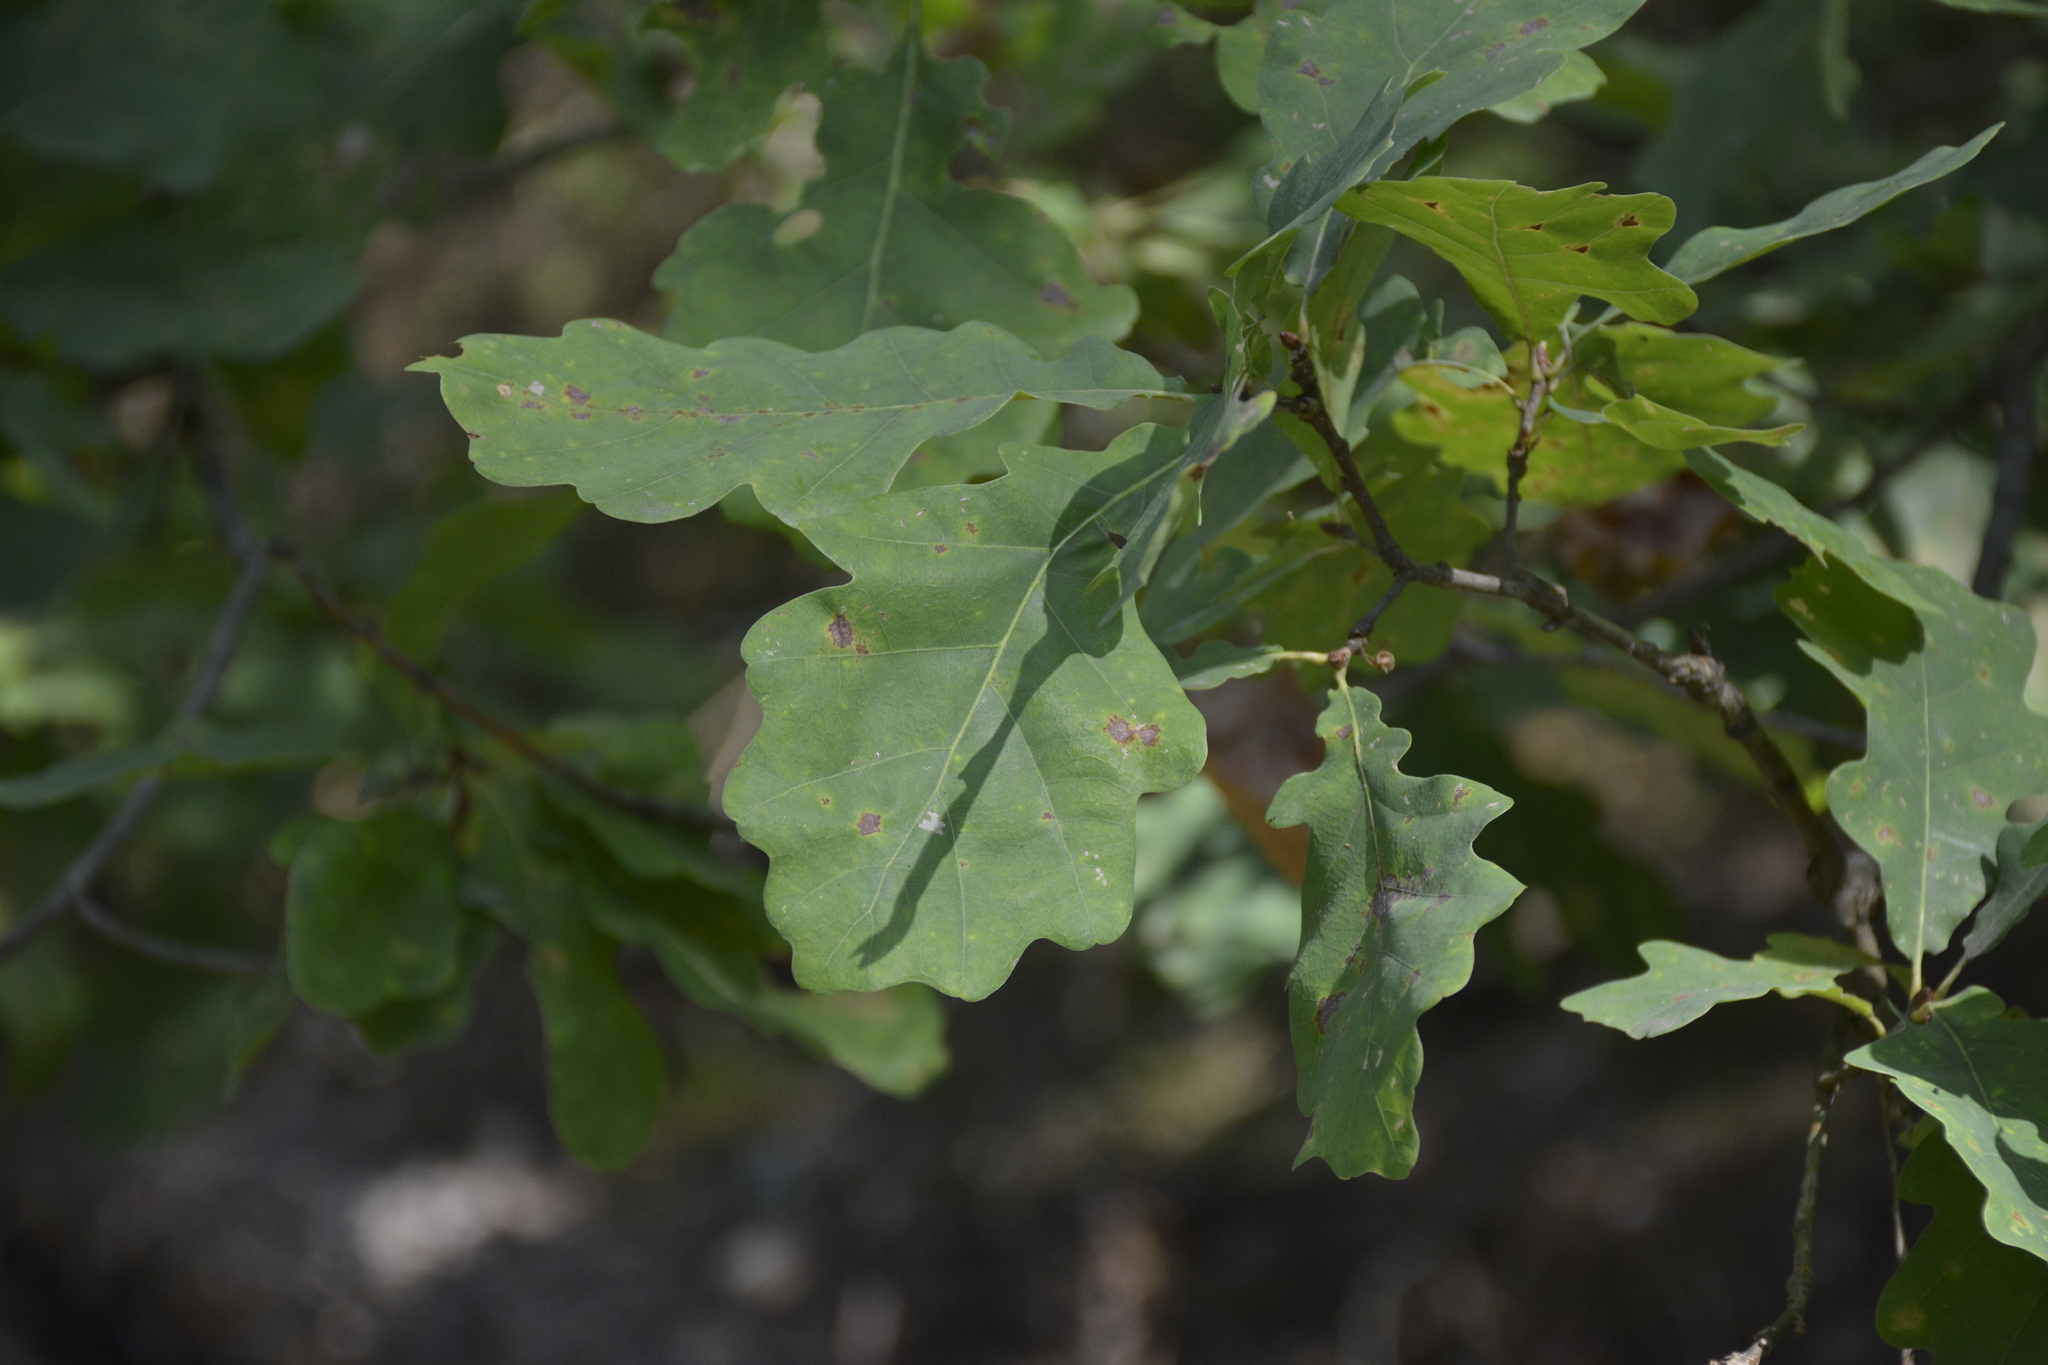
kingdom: Plantae
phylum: Tracheophyta
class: Magnoliopsida
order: Fagales
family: Fagaceae
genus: Quercus
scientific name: Quercus robur
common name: Pedunculate oak
